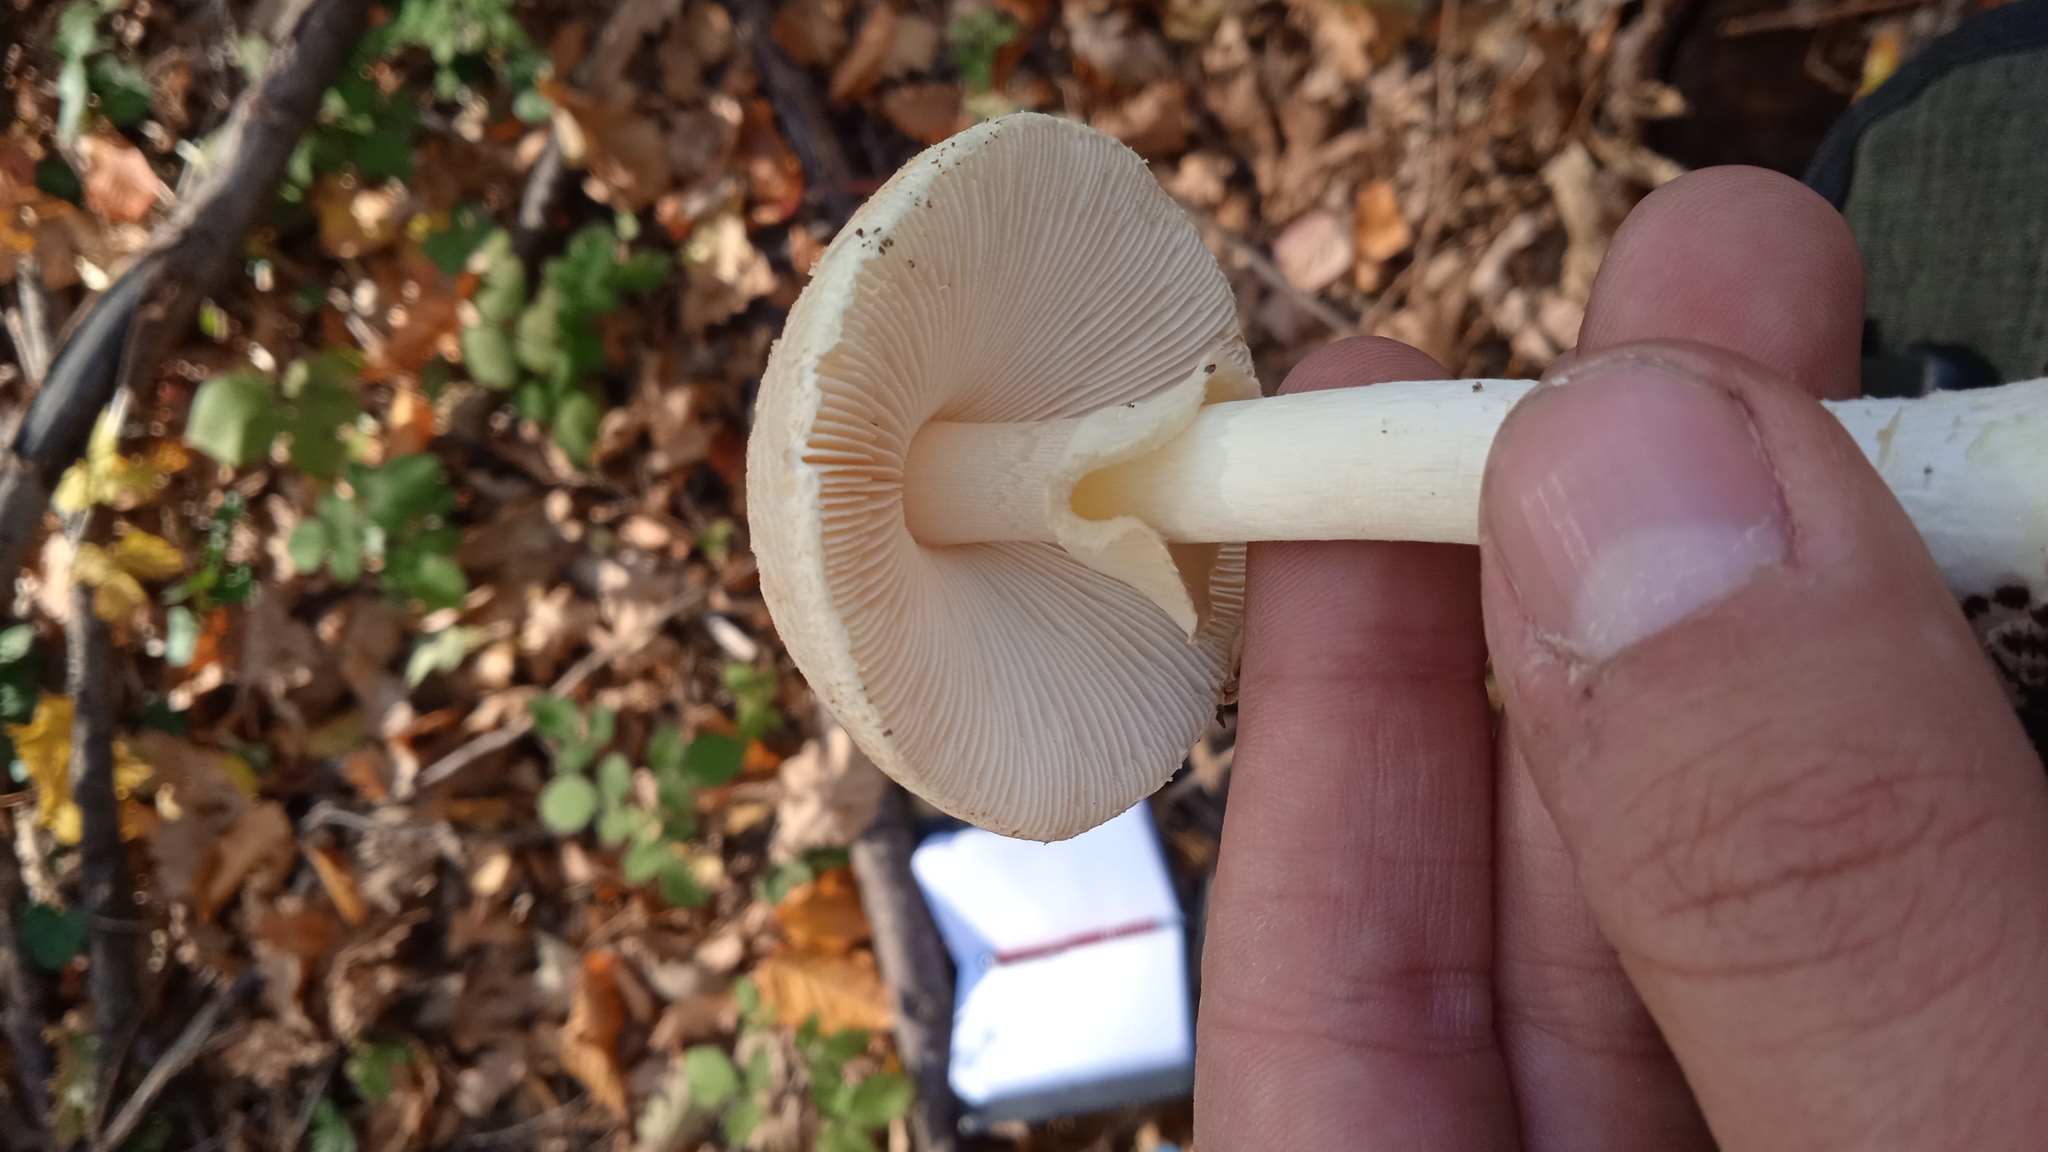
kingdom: Fungi
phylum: Basidiomycota
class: Agaricomycetes
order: Agaricales
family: Amanitaceae
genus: Amanita
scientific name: Amanita citrina
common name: False death-cap
